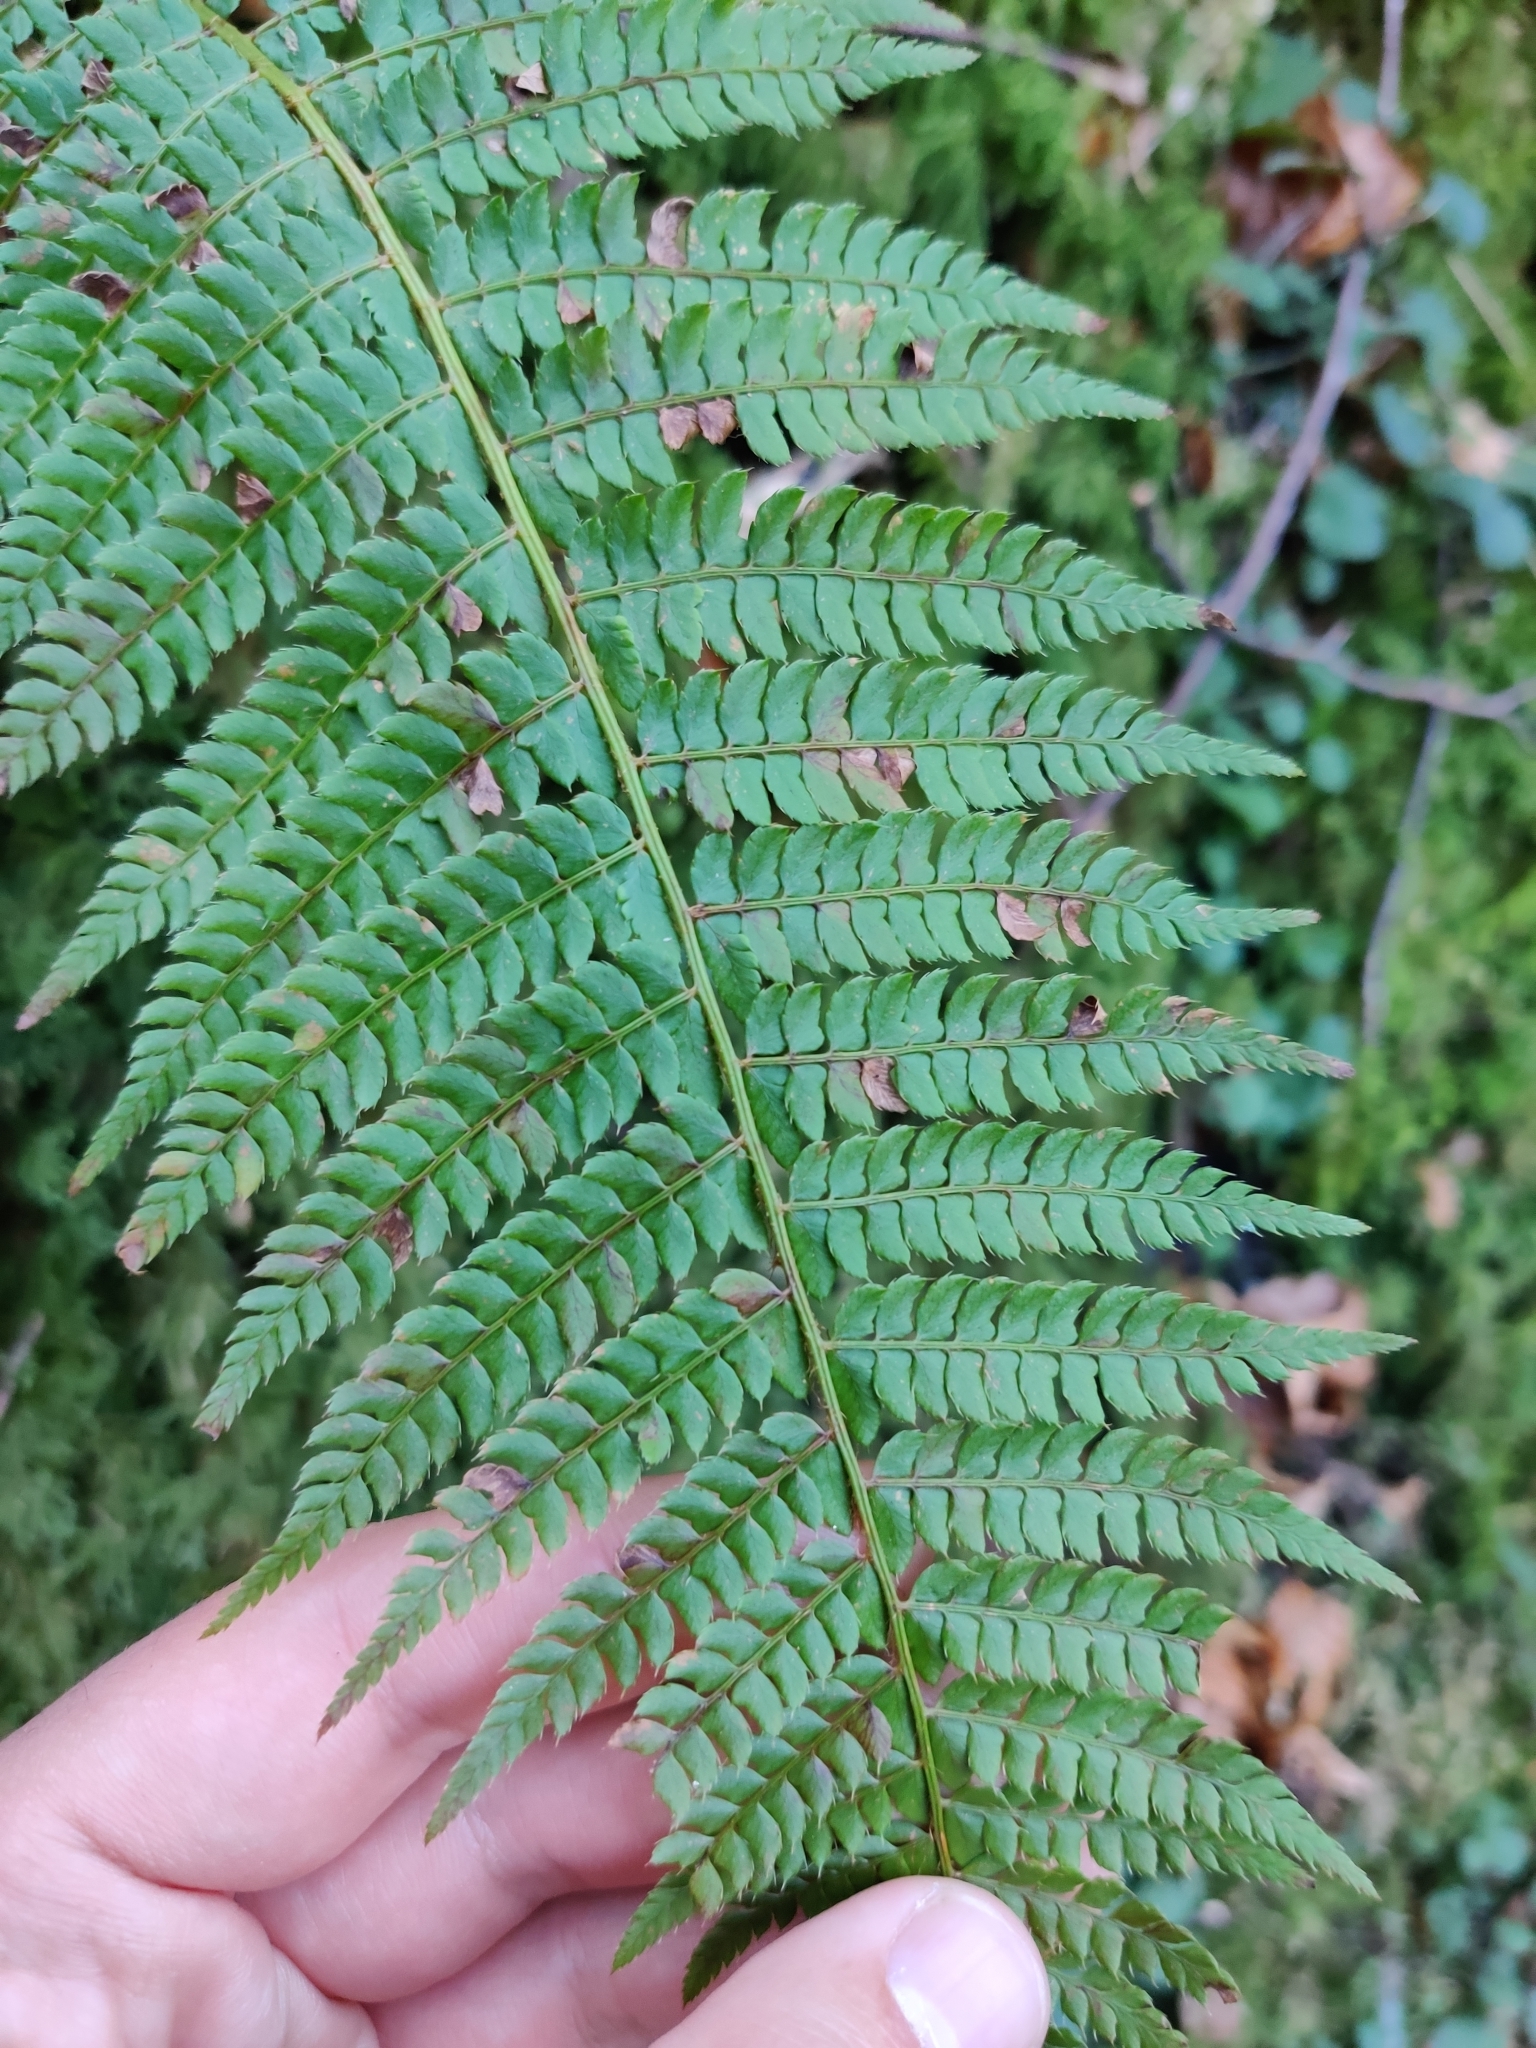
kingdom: Plantae
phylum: Tracheophyta
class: Polypodiopsida
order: Polypodiales
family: Dryopteridaceae
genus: Polystichum
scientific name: Polystichum setiferum
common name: Soft shield-fern
